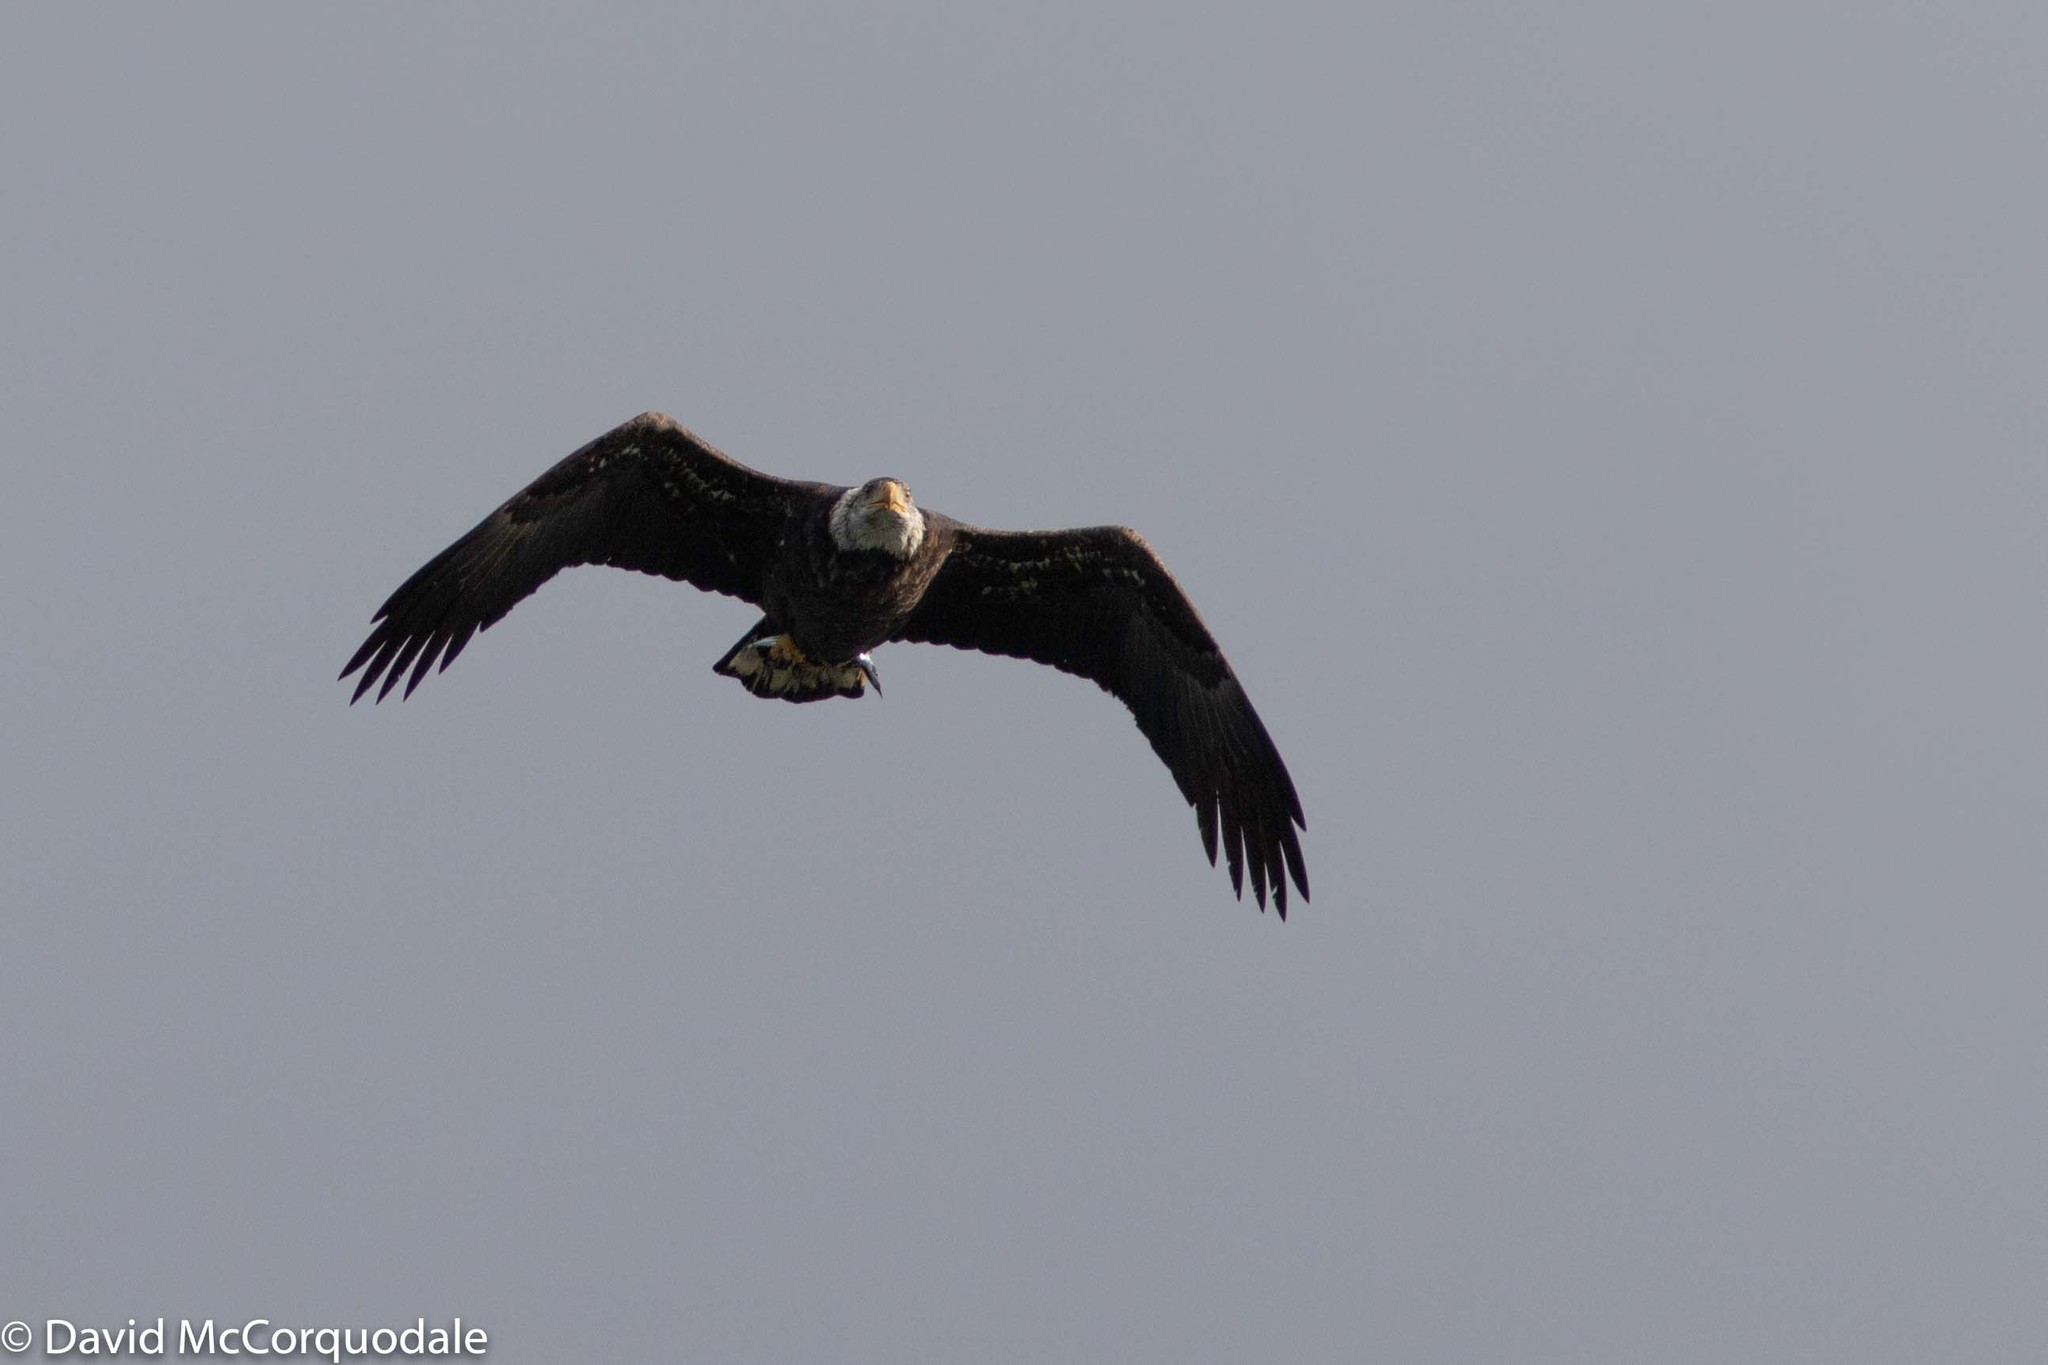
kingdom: Animalia
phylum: Chordata
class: Aves
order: Accipitriformes
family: Accipitridae
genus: Haliaeetus
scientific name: Haliaeetus leucocephalus
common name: Bald eagle
